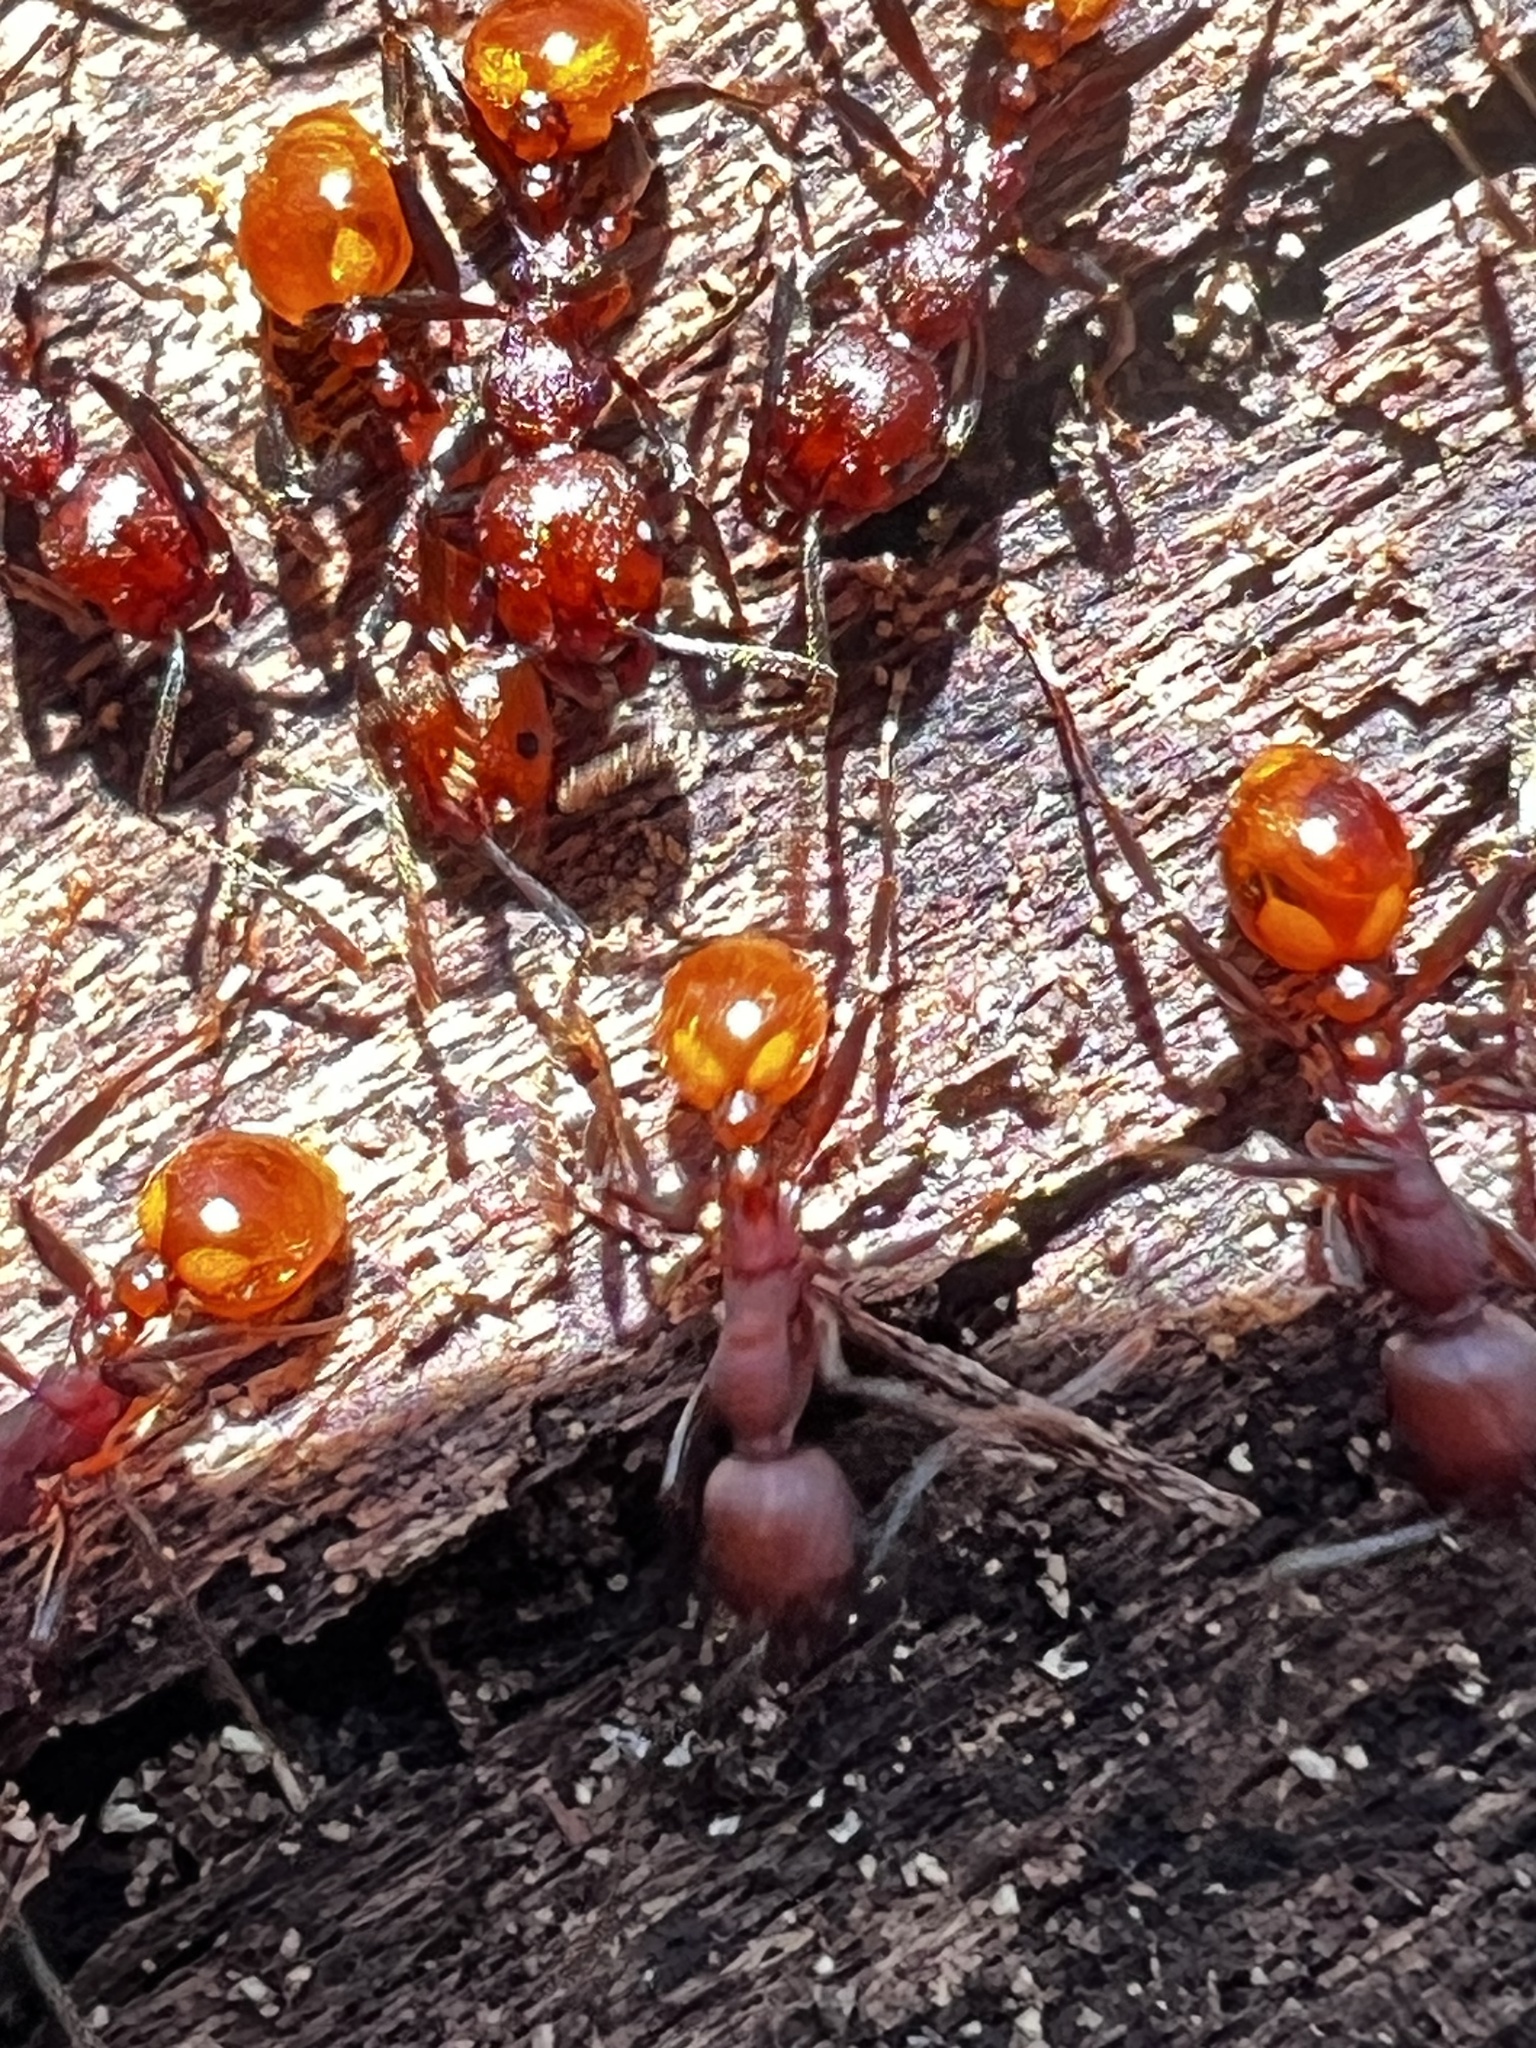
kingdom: Animalia
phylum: Arthropoda
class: Insecta
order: Hymenoptera
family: Formicidae
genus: Aphaenogaster
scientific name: Aphaenogaster tennesseensis
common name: Tennessee thread-waisted ant
